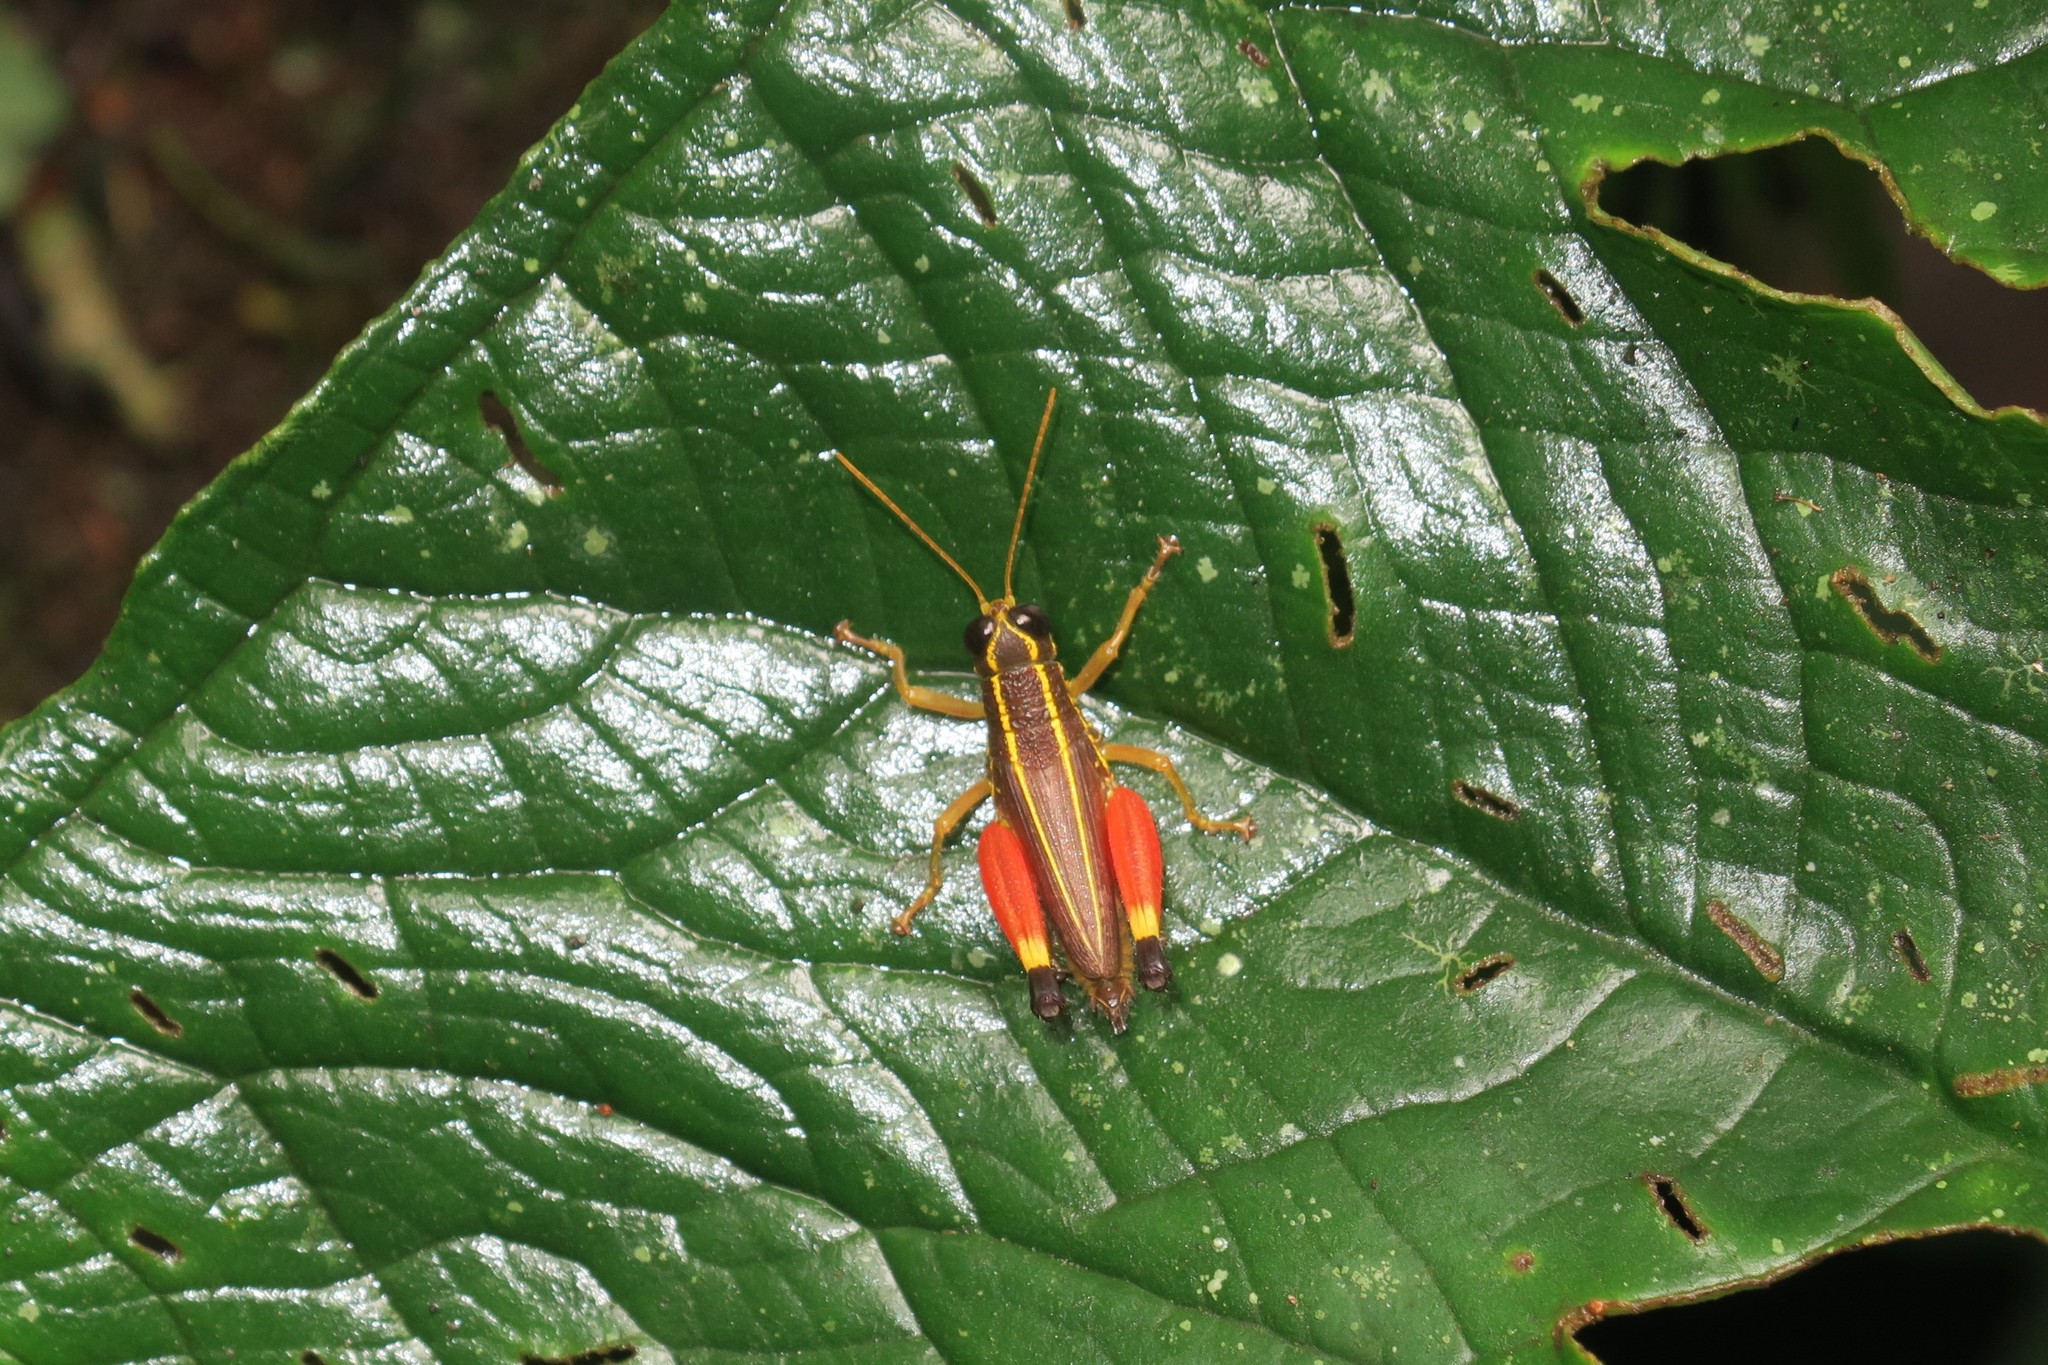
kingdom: Animalia
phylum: Arthropoda
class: Insecta
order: Orthoptera
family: Acrididae
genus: Witotacris
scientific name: Witotacris annulicrus
